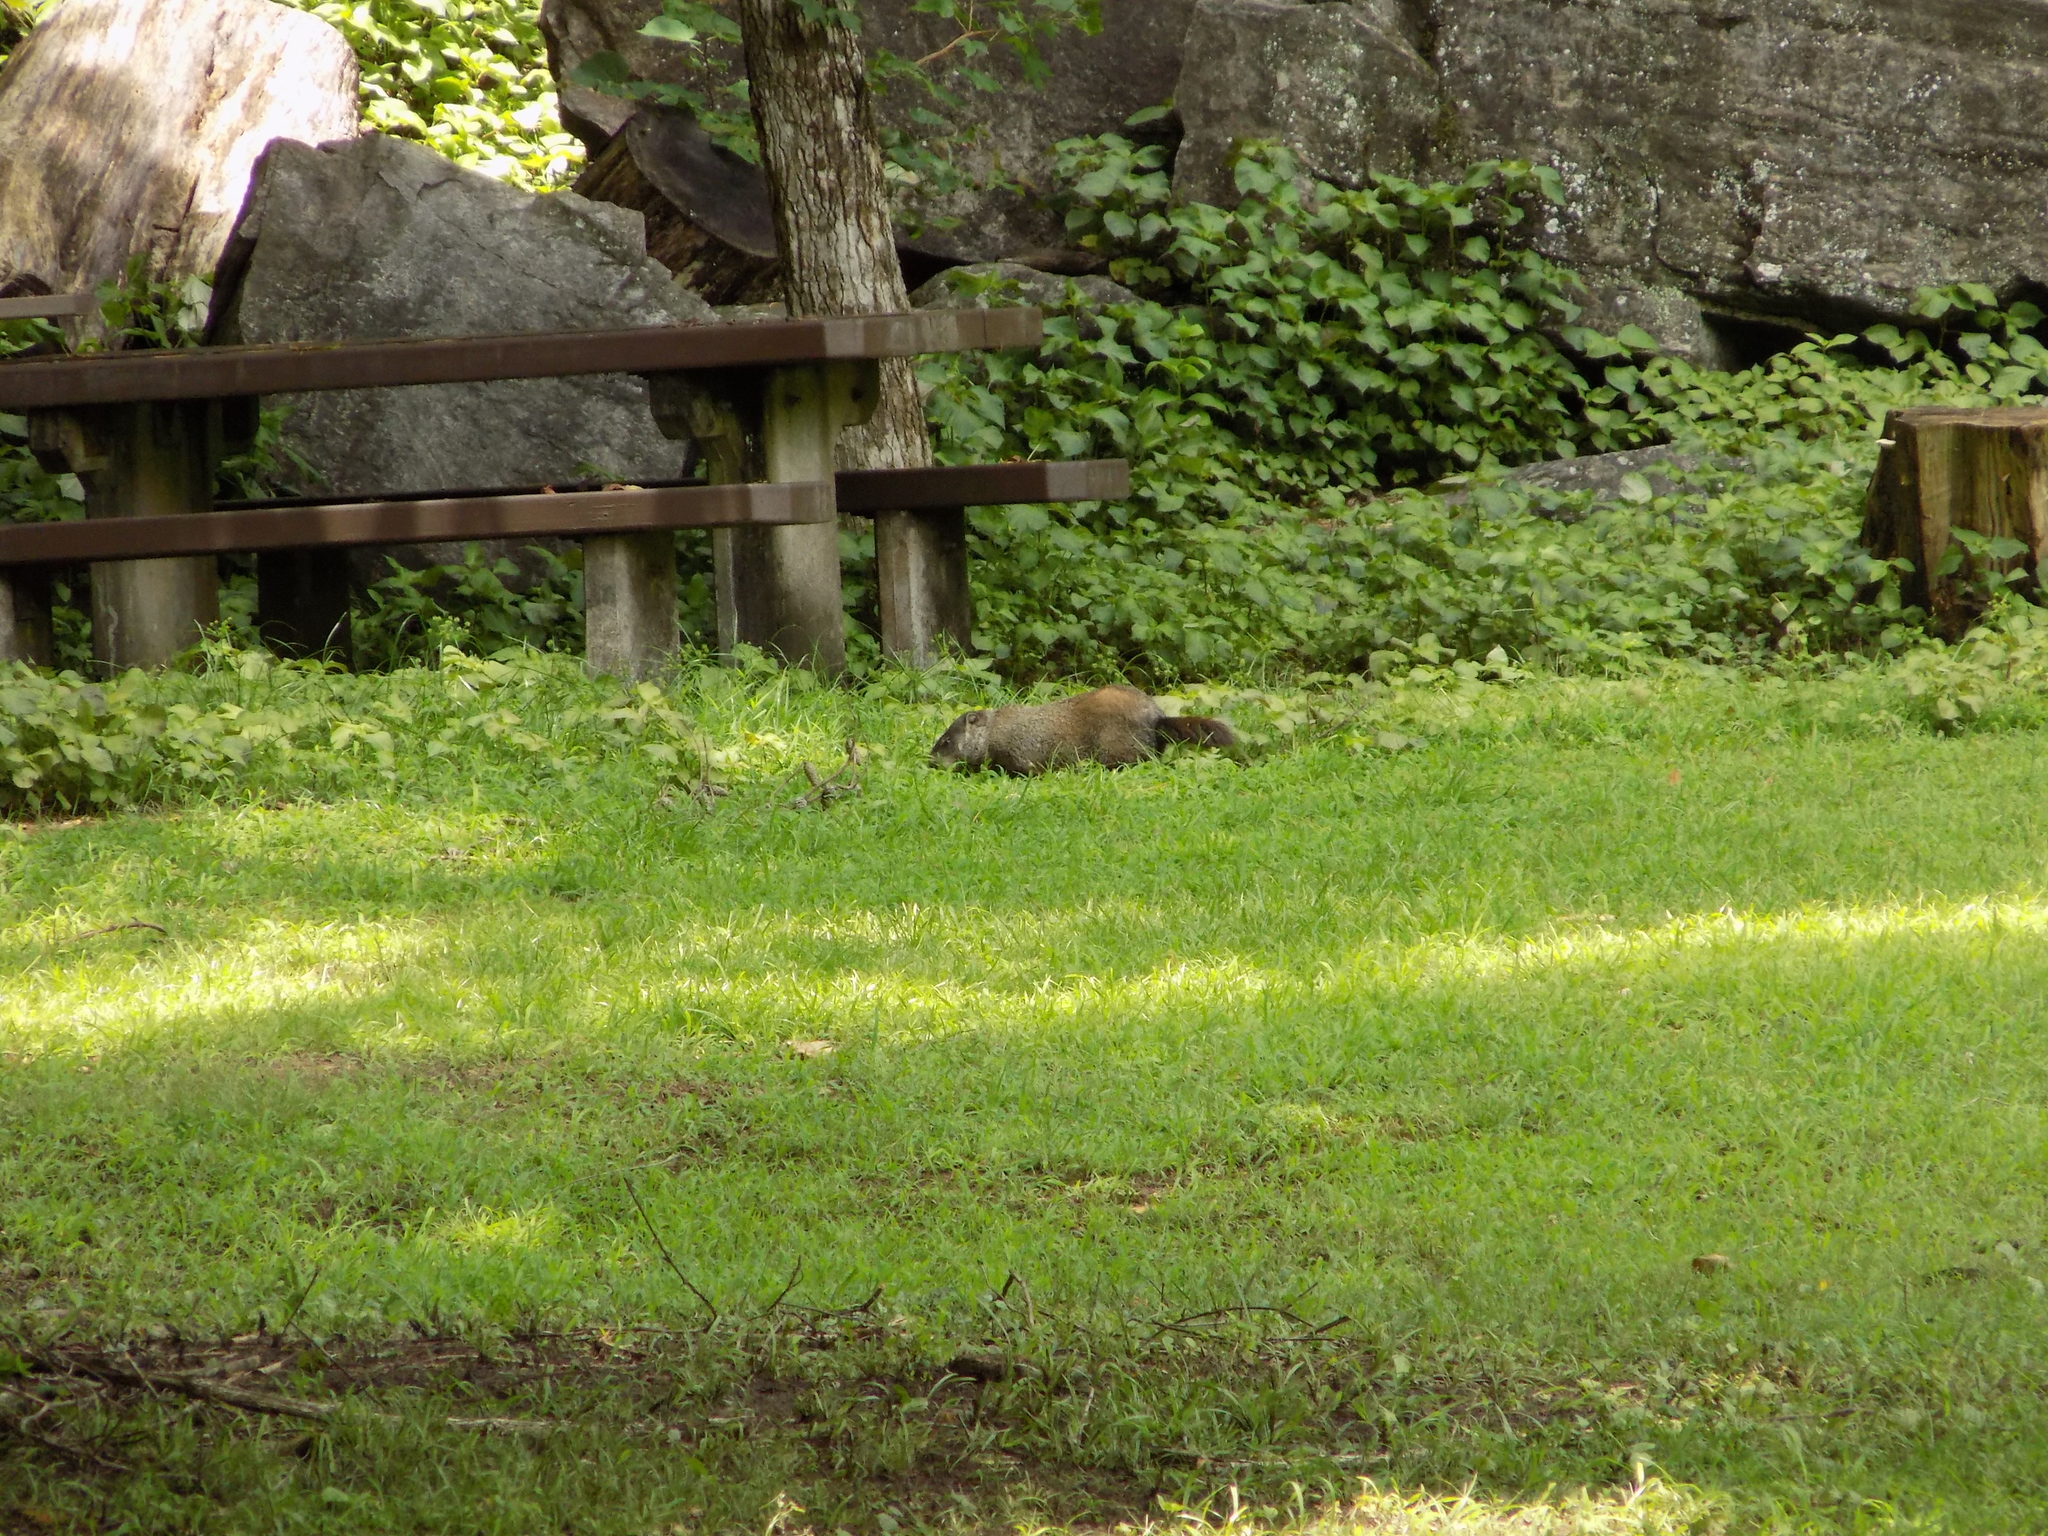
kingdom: Animalia
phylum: Chordata
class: Mammalia
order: Rodentia
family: Sciuridae
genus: Marmota
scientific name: Marmota monax
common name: Groundhog
